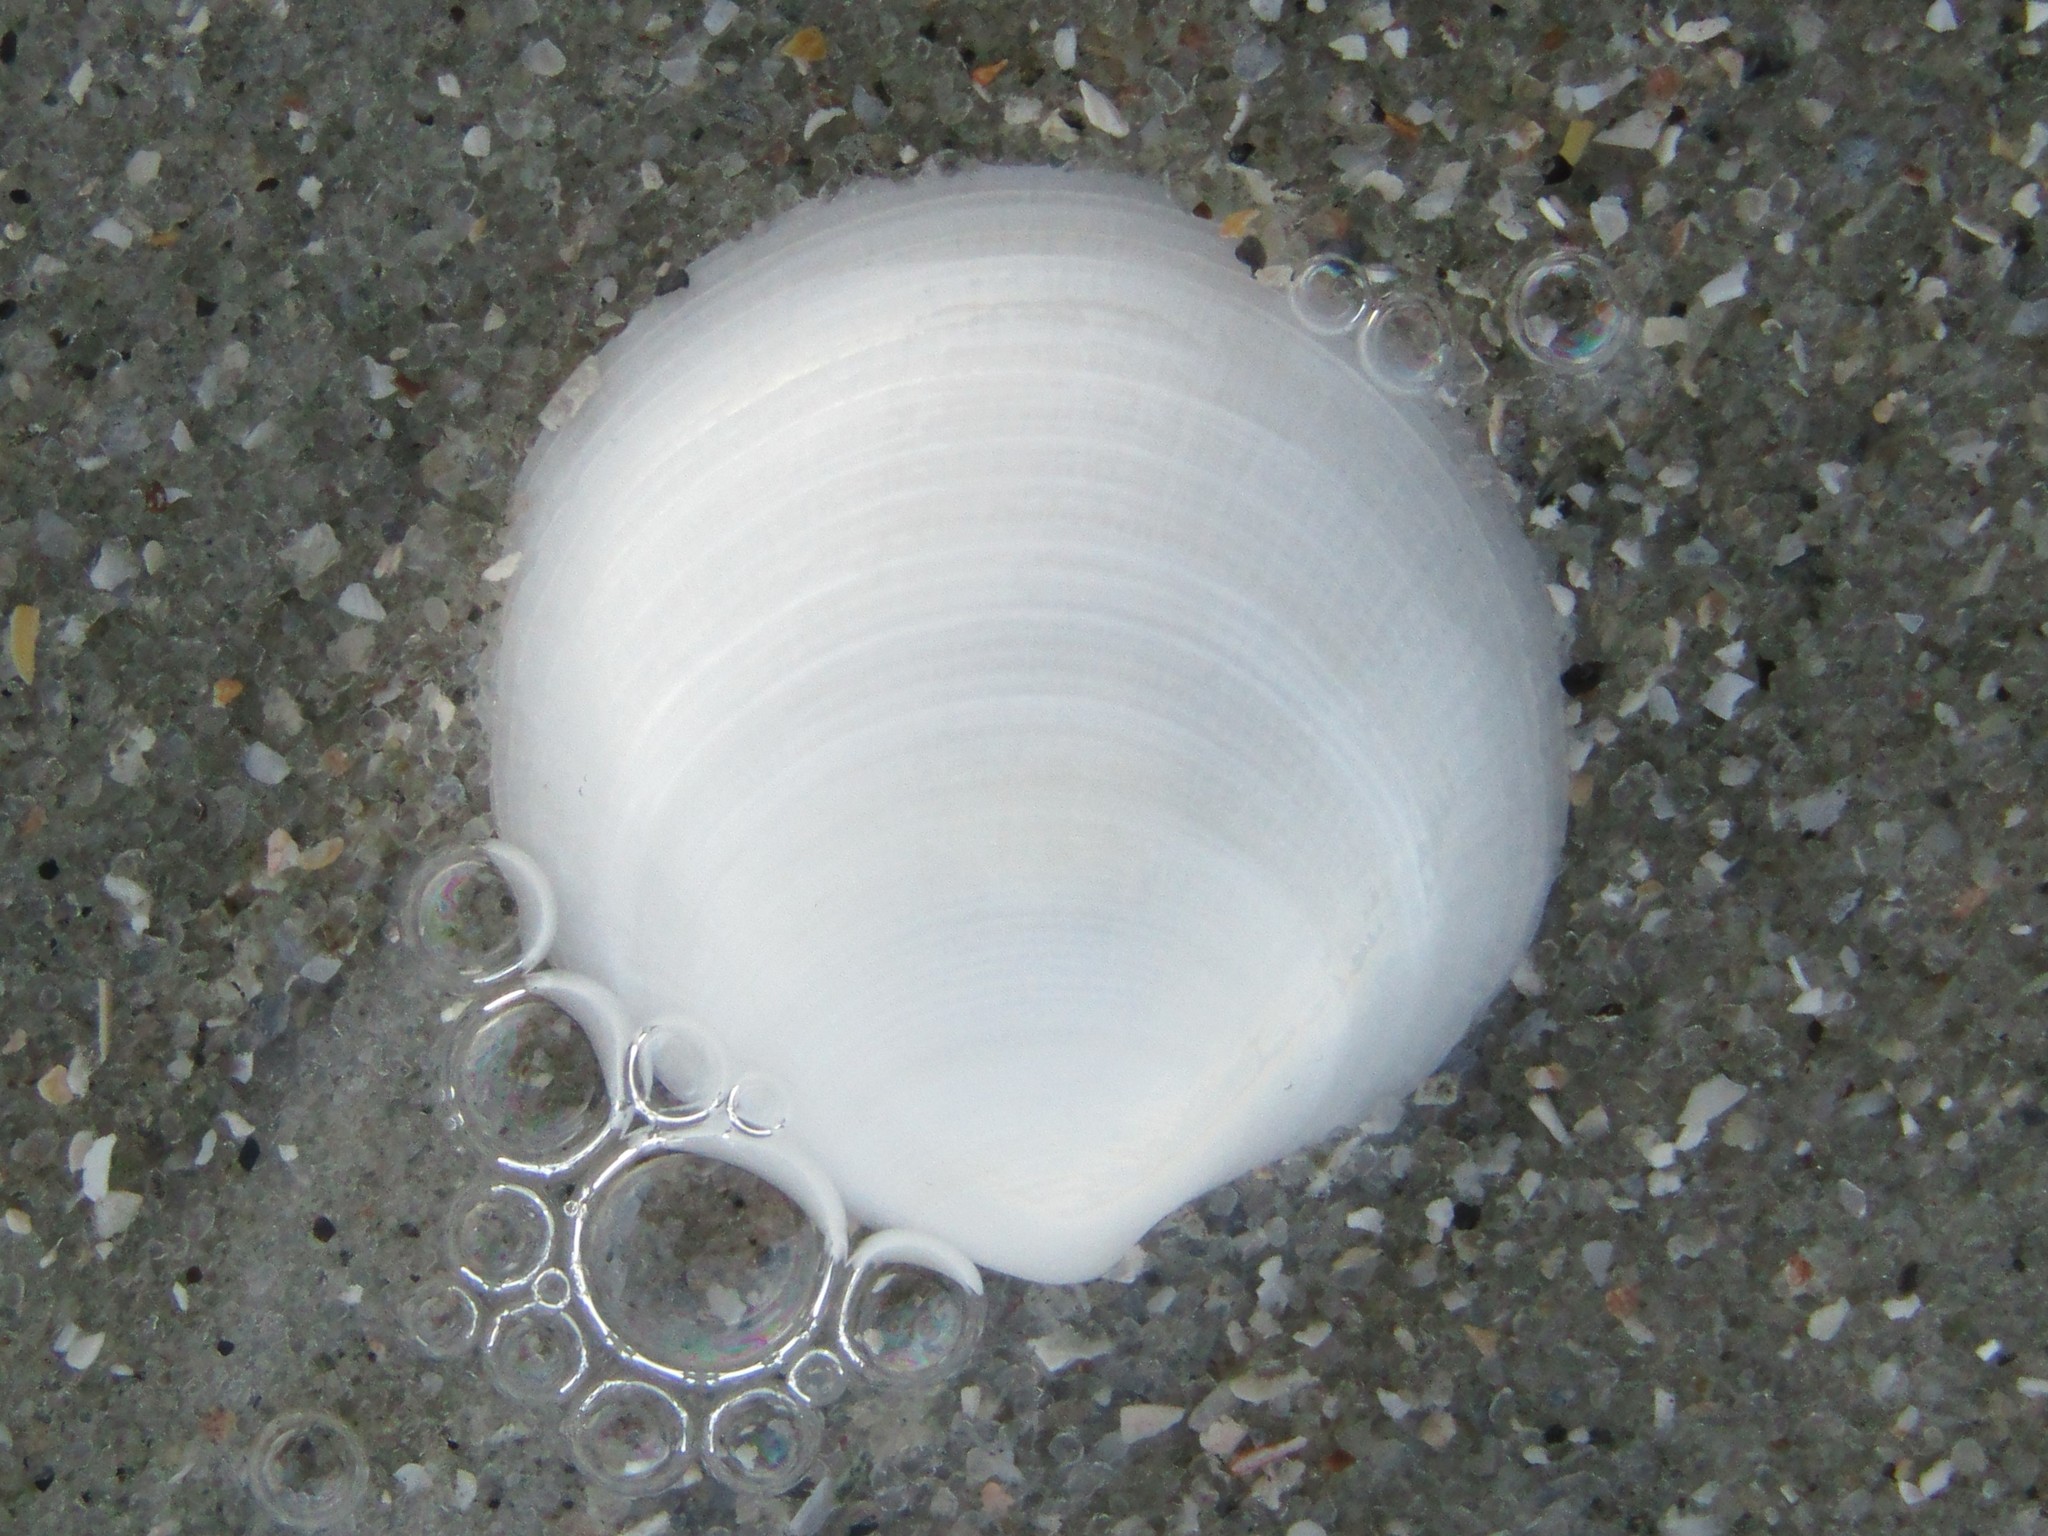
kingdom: Animalia
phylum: Mollusca
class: Bivalvia
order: Lucinida
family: Lucinidae
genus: Callucina
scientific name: Callucina keenae
